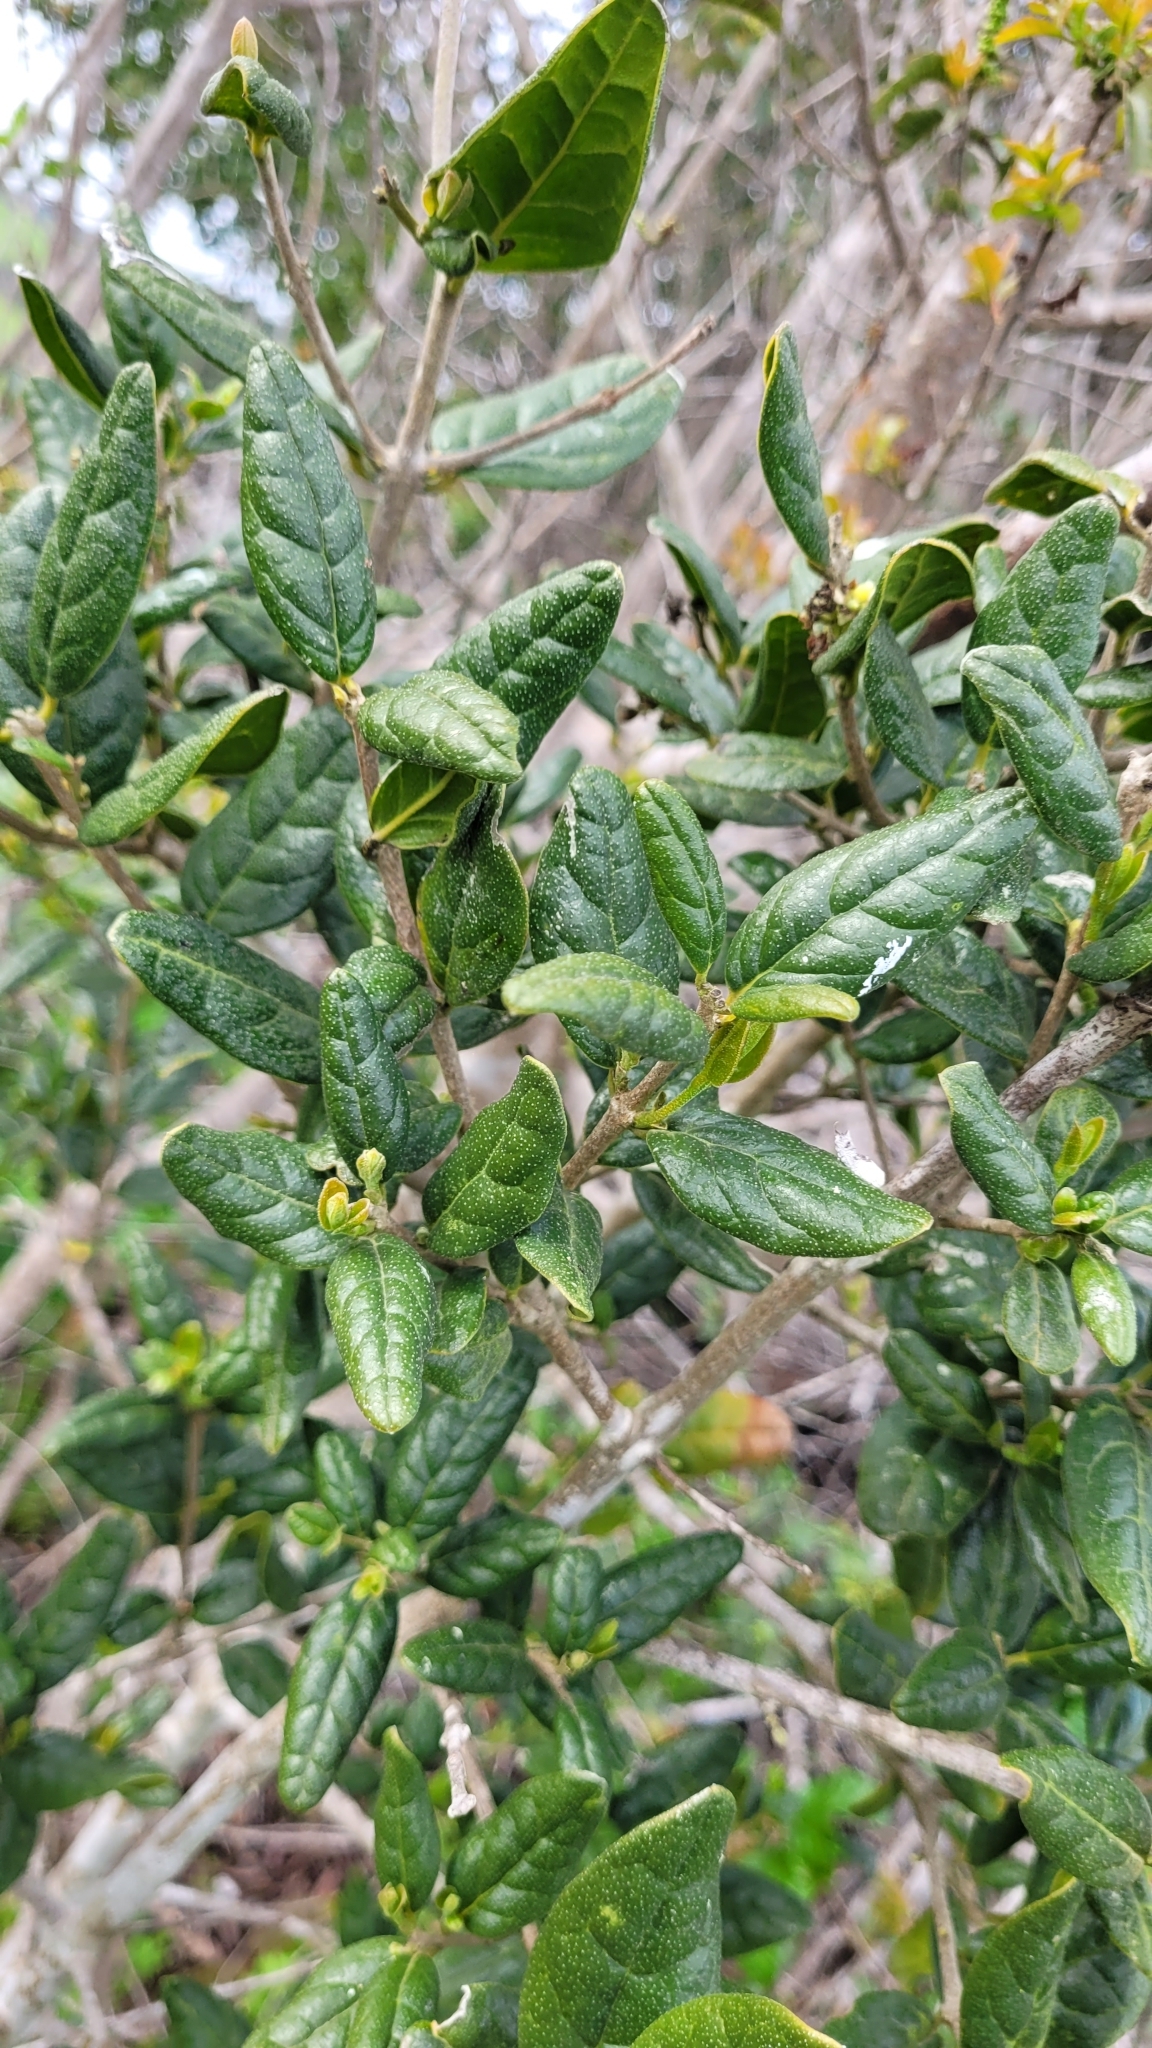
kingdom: Plantae
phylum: Tracheophyta
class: Magnoliopsida
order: Laurales
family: Monimiaceae
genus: Peumus
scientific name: Peumus boldus
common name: Boldo
